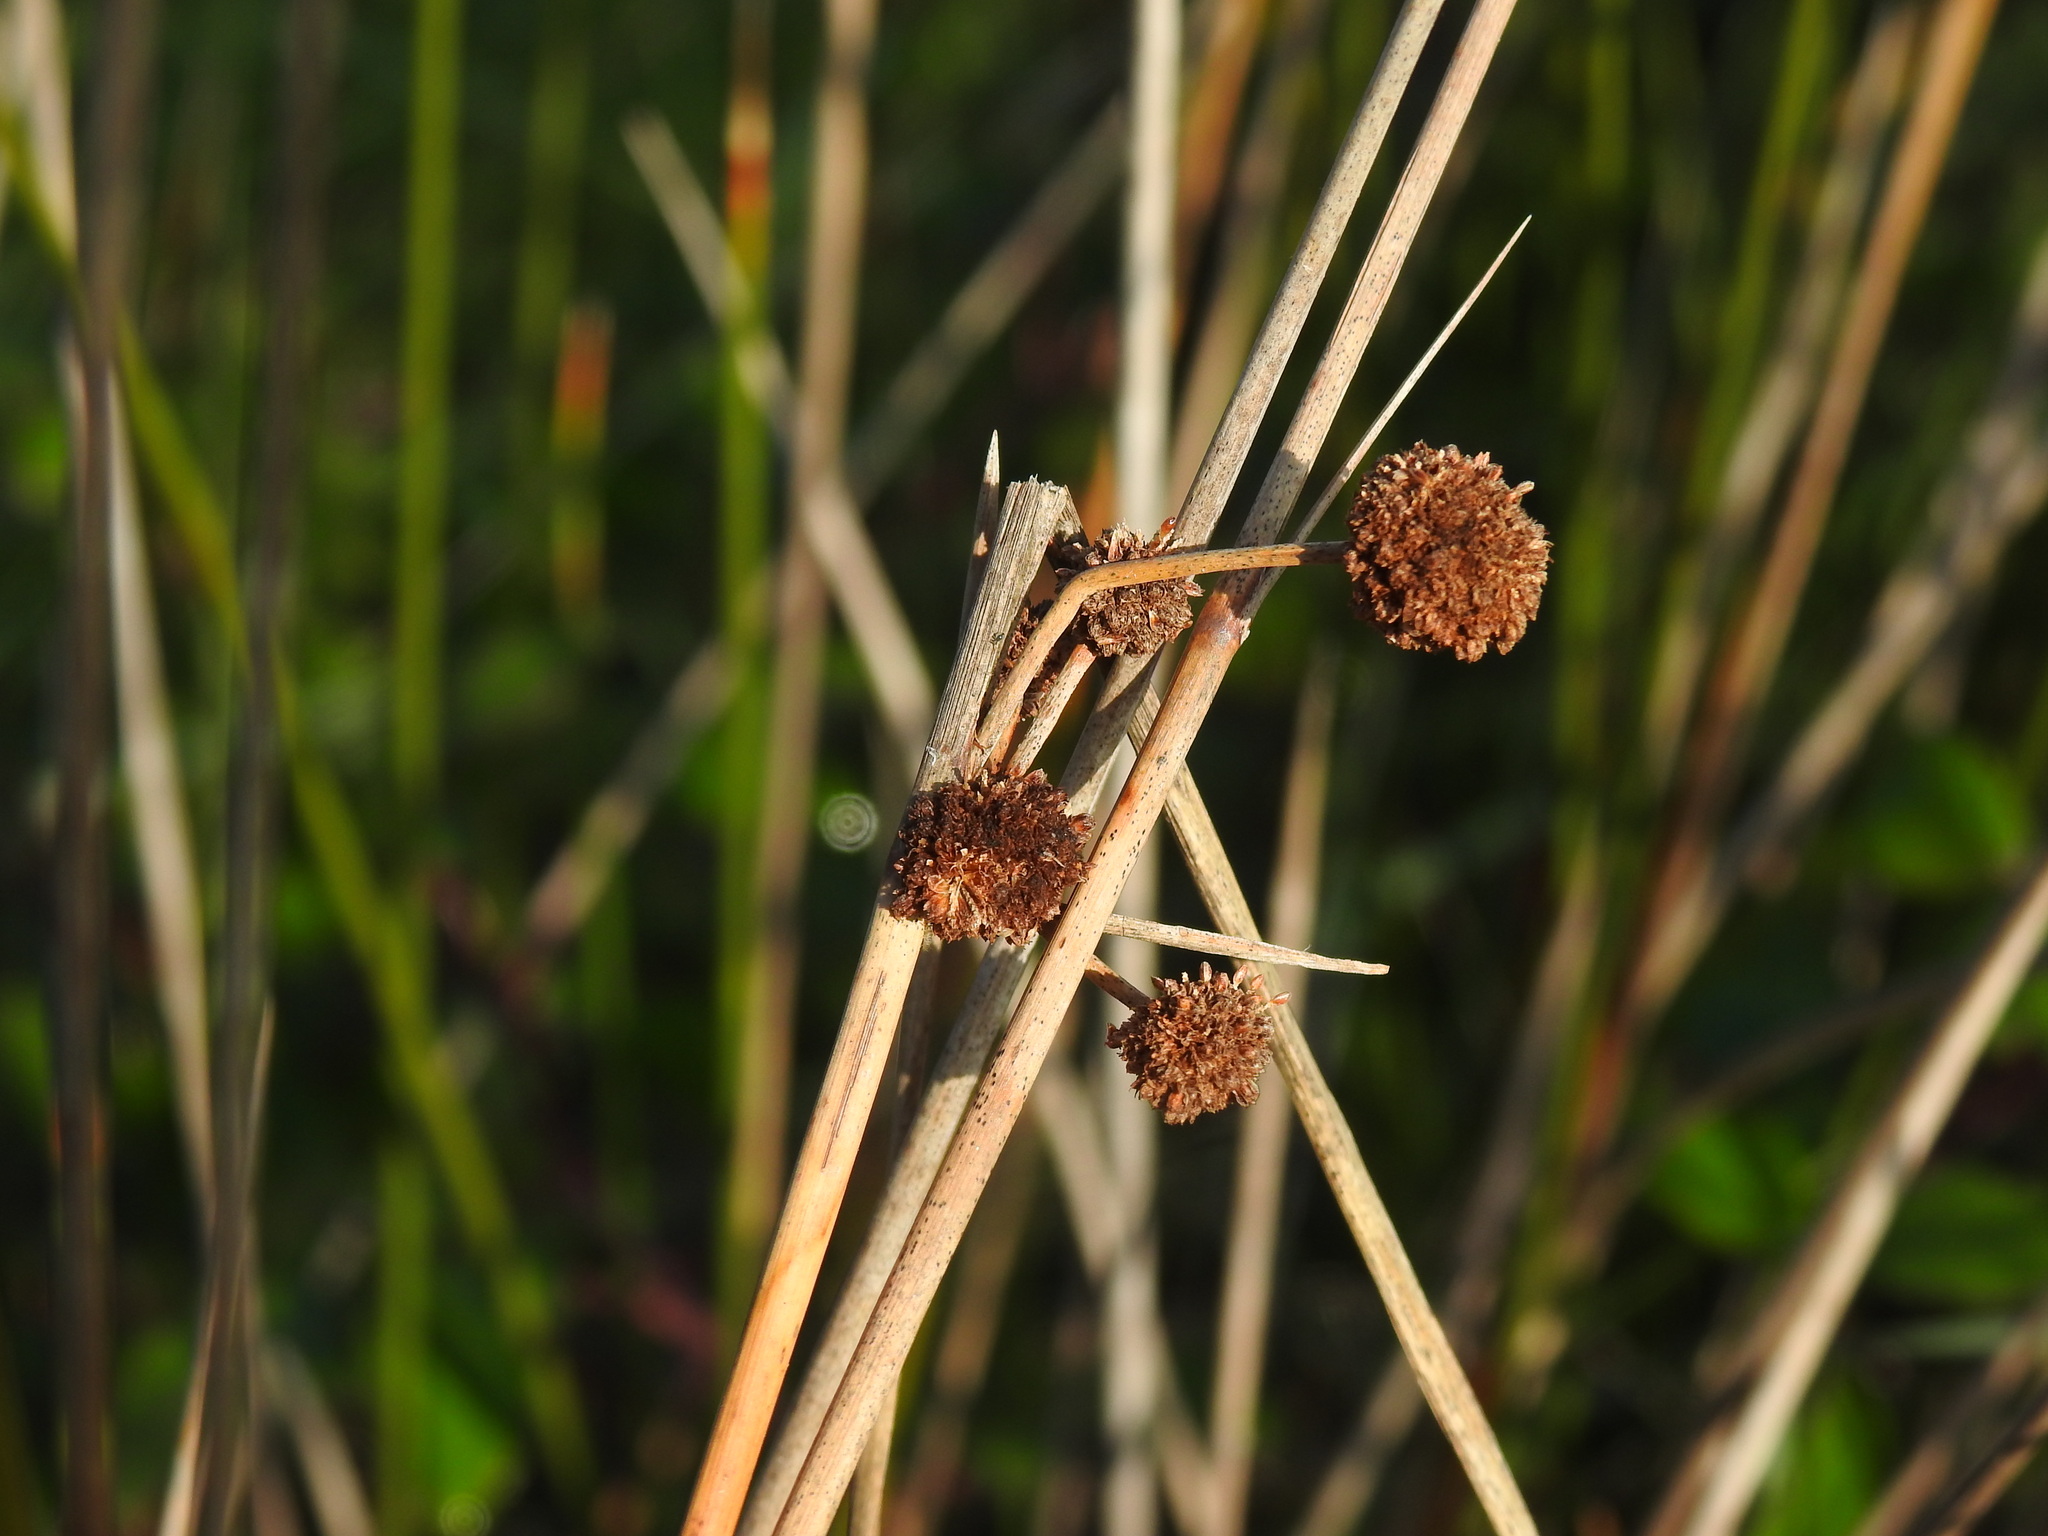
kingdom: Plantae
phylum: Tracheophyta
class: Liliopsida
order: Poales
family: Cyperaceae
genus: Scirpoides
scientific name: Scirpoides holoschoenus
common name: Round-headed club-rush
